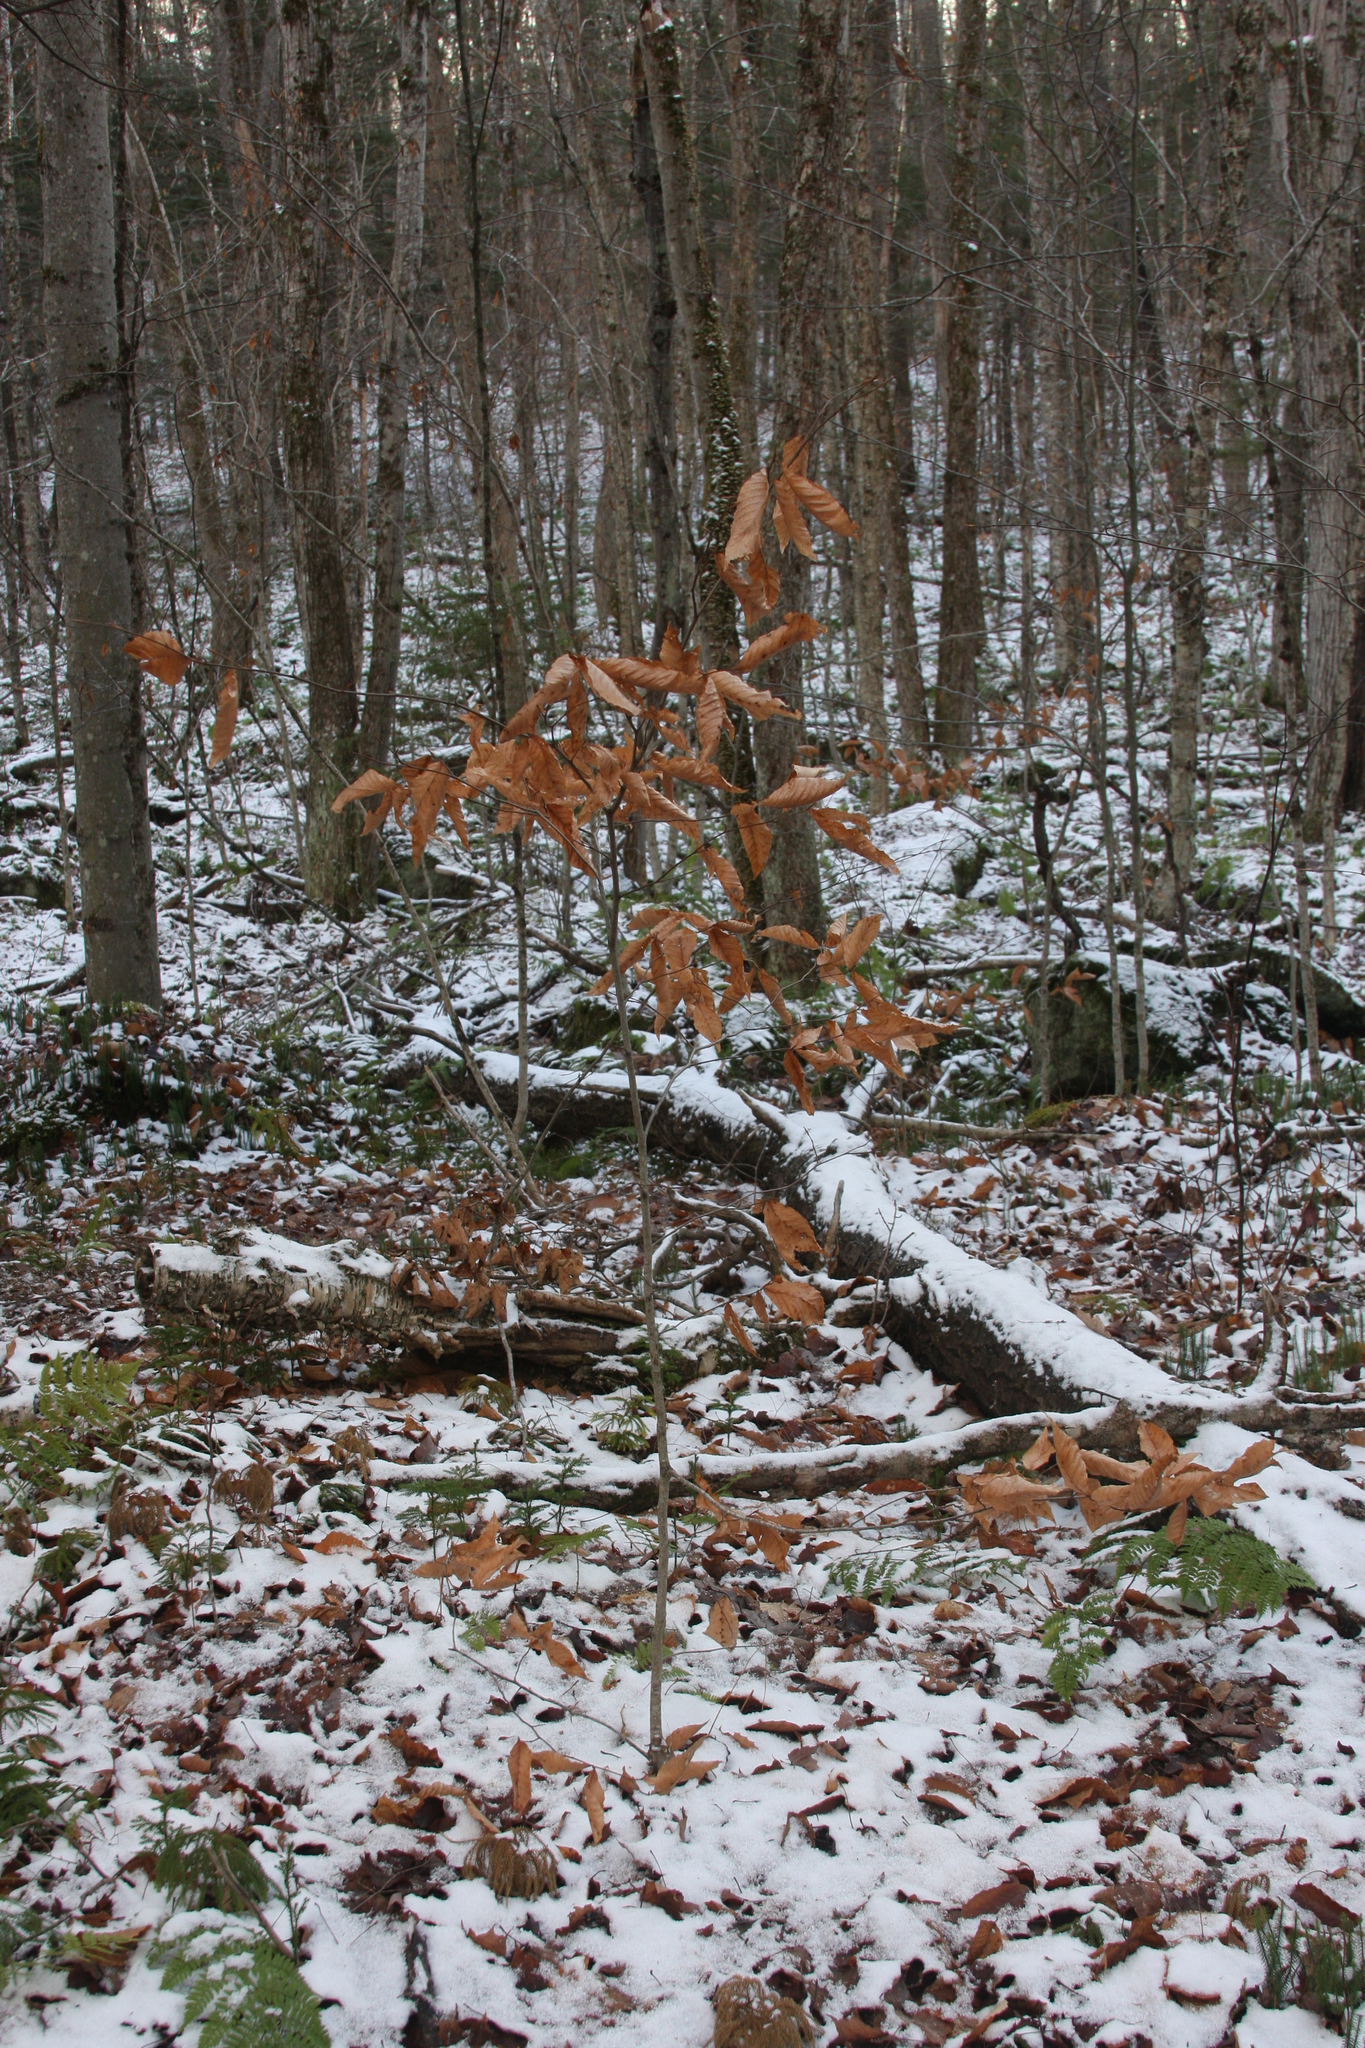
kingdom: Plantae
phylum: Tracheophyta
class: Magnoliopsida
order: Fagales
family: Fagaceae
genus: Fagus
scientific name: Fagus grandifolia
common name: American beech
